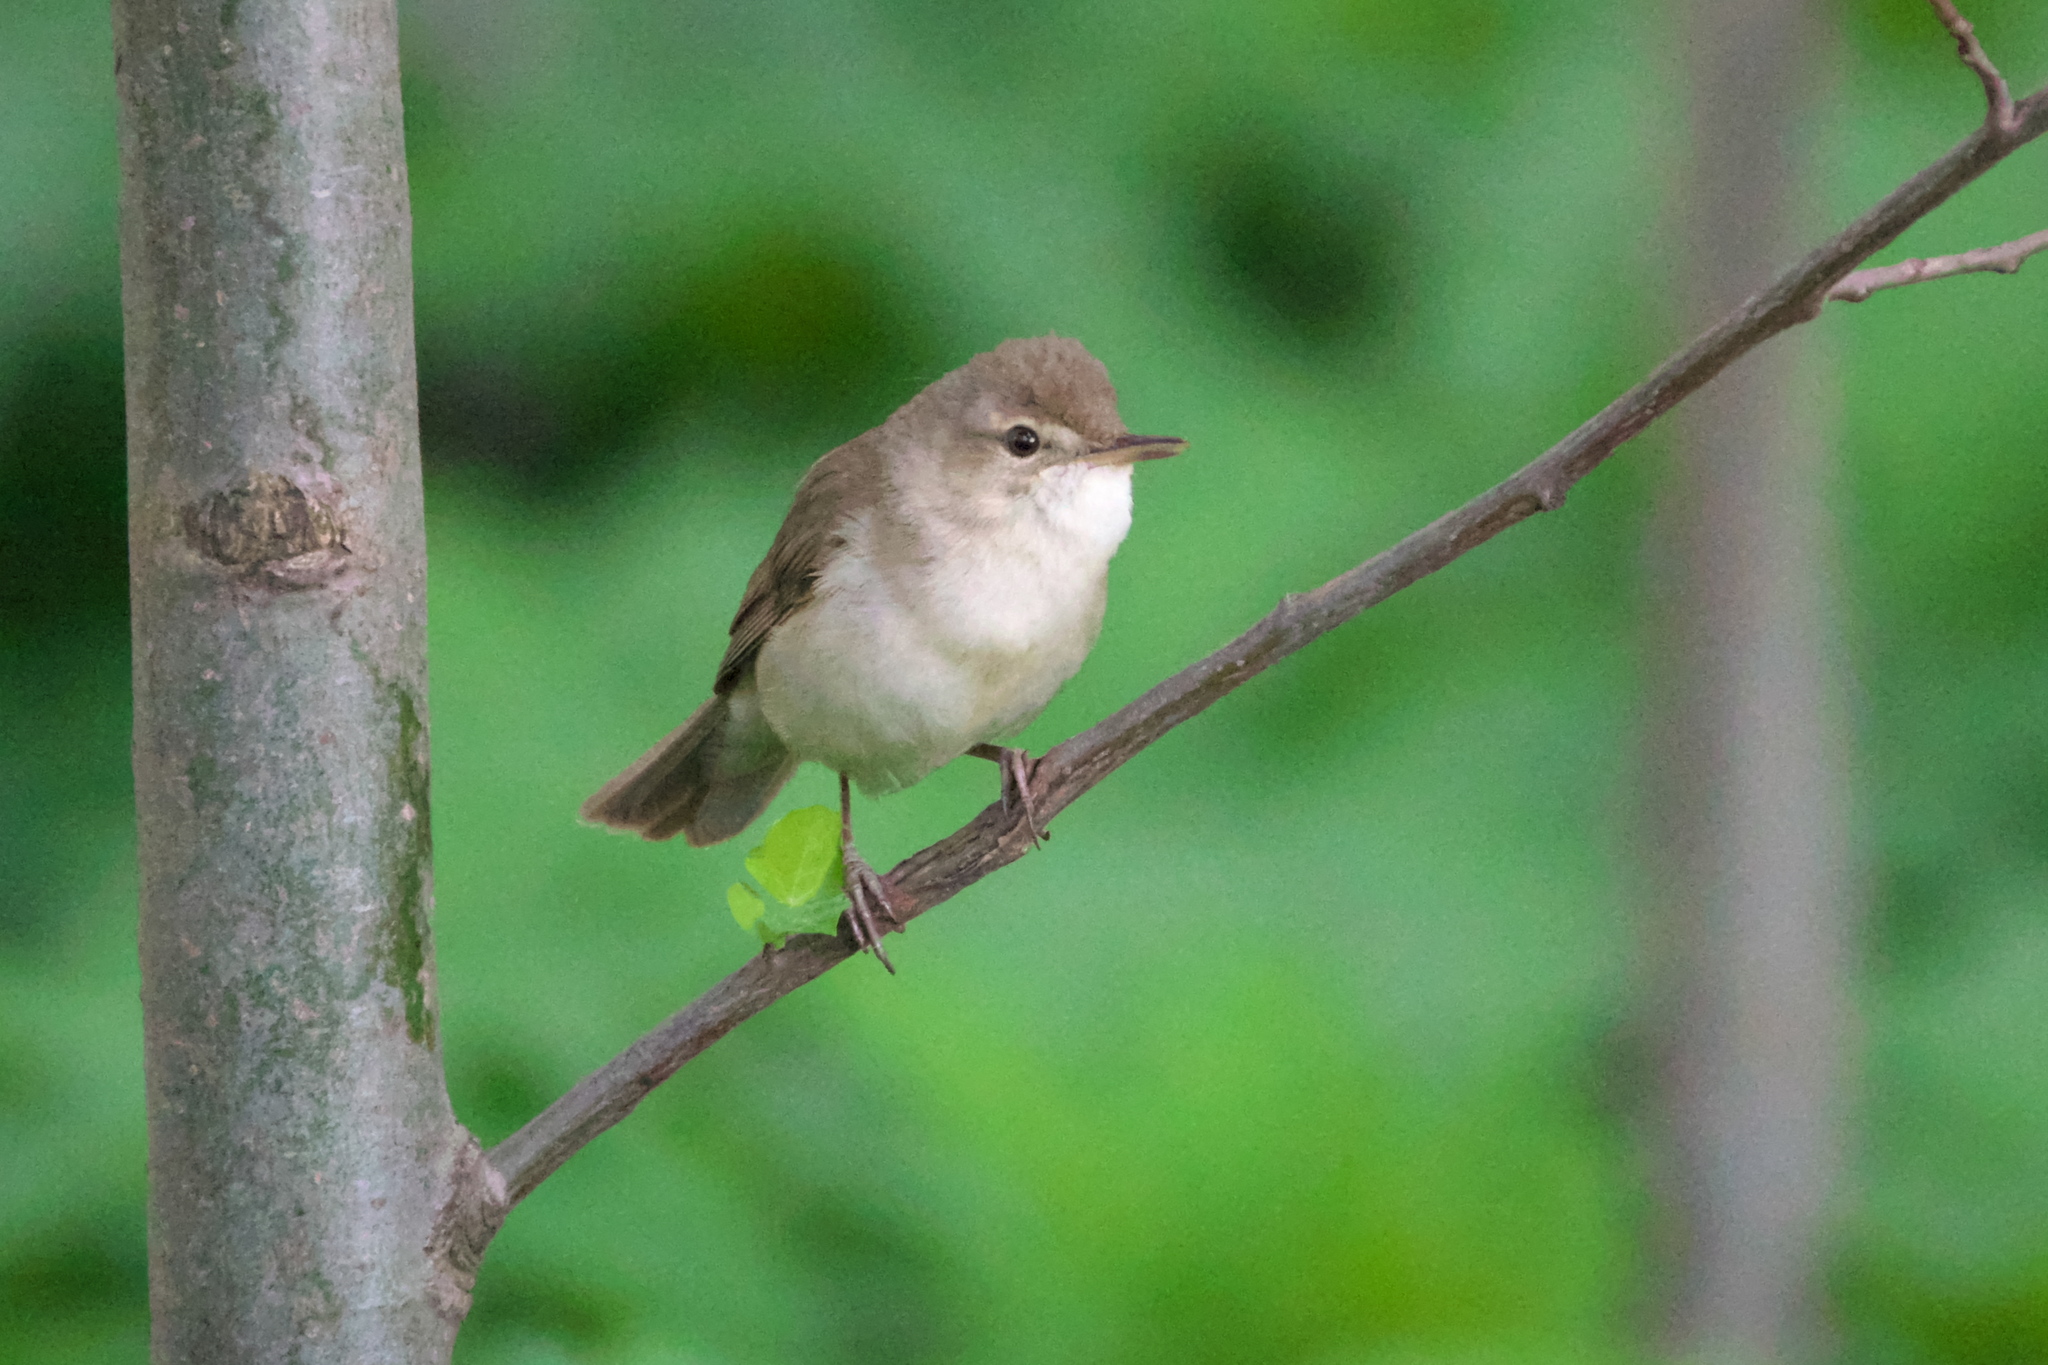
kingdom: Animalia
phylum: Chordata
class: Aves
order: Passeriformes
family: Acrocephalidae
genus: Acrocephalus
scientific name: Acrocephalus dumetorum
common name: Blyth's reed warbler
